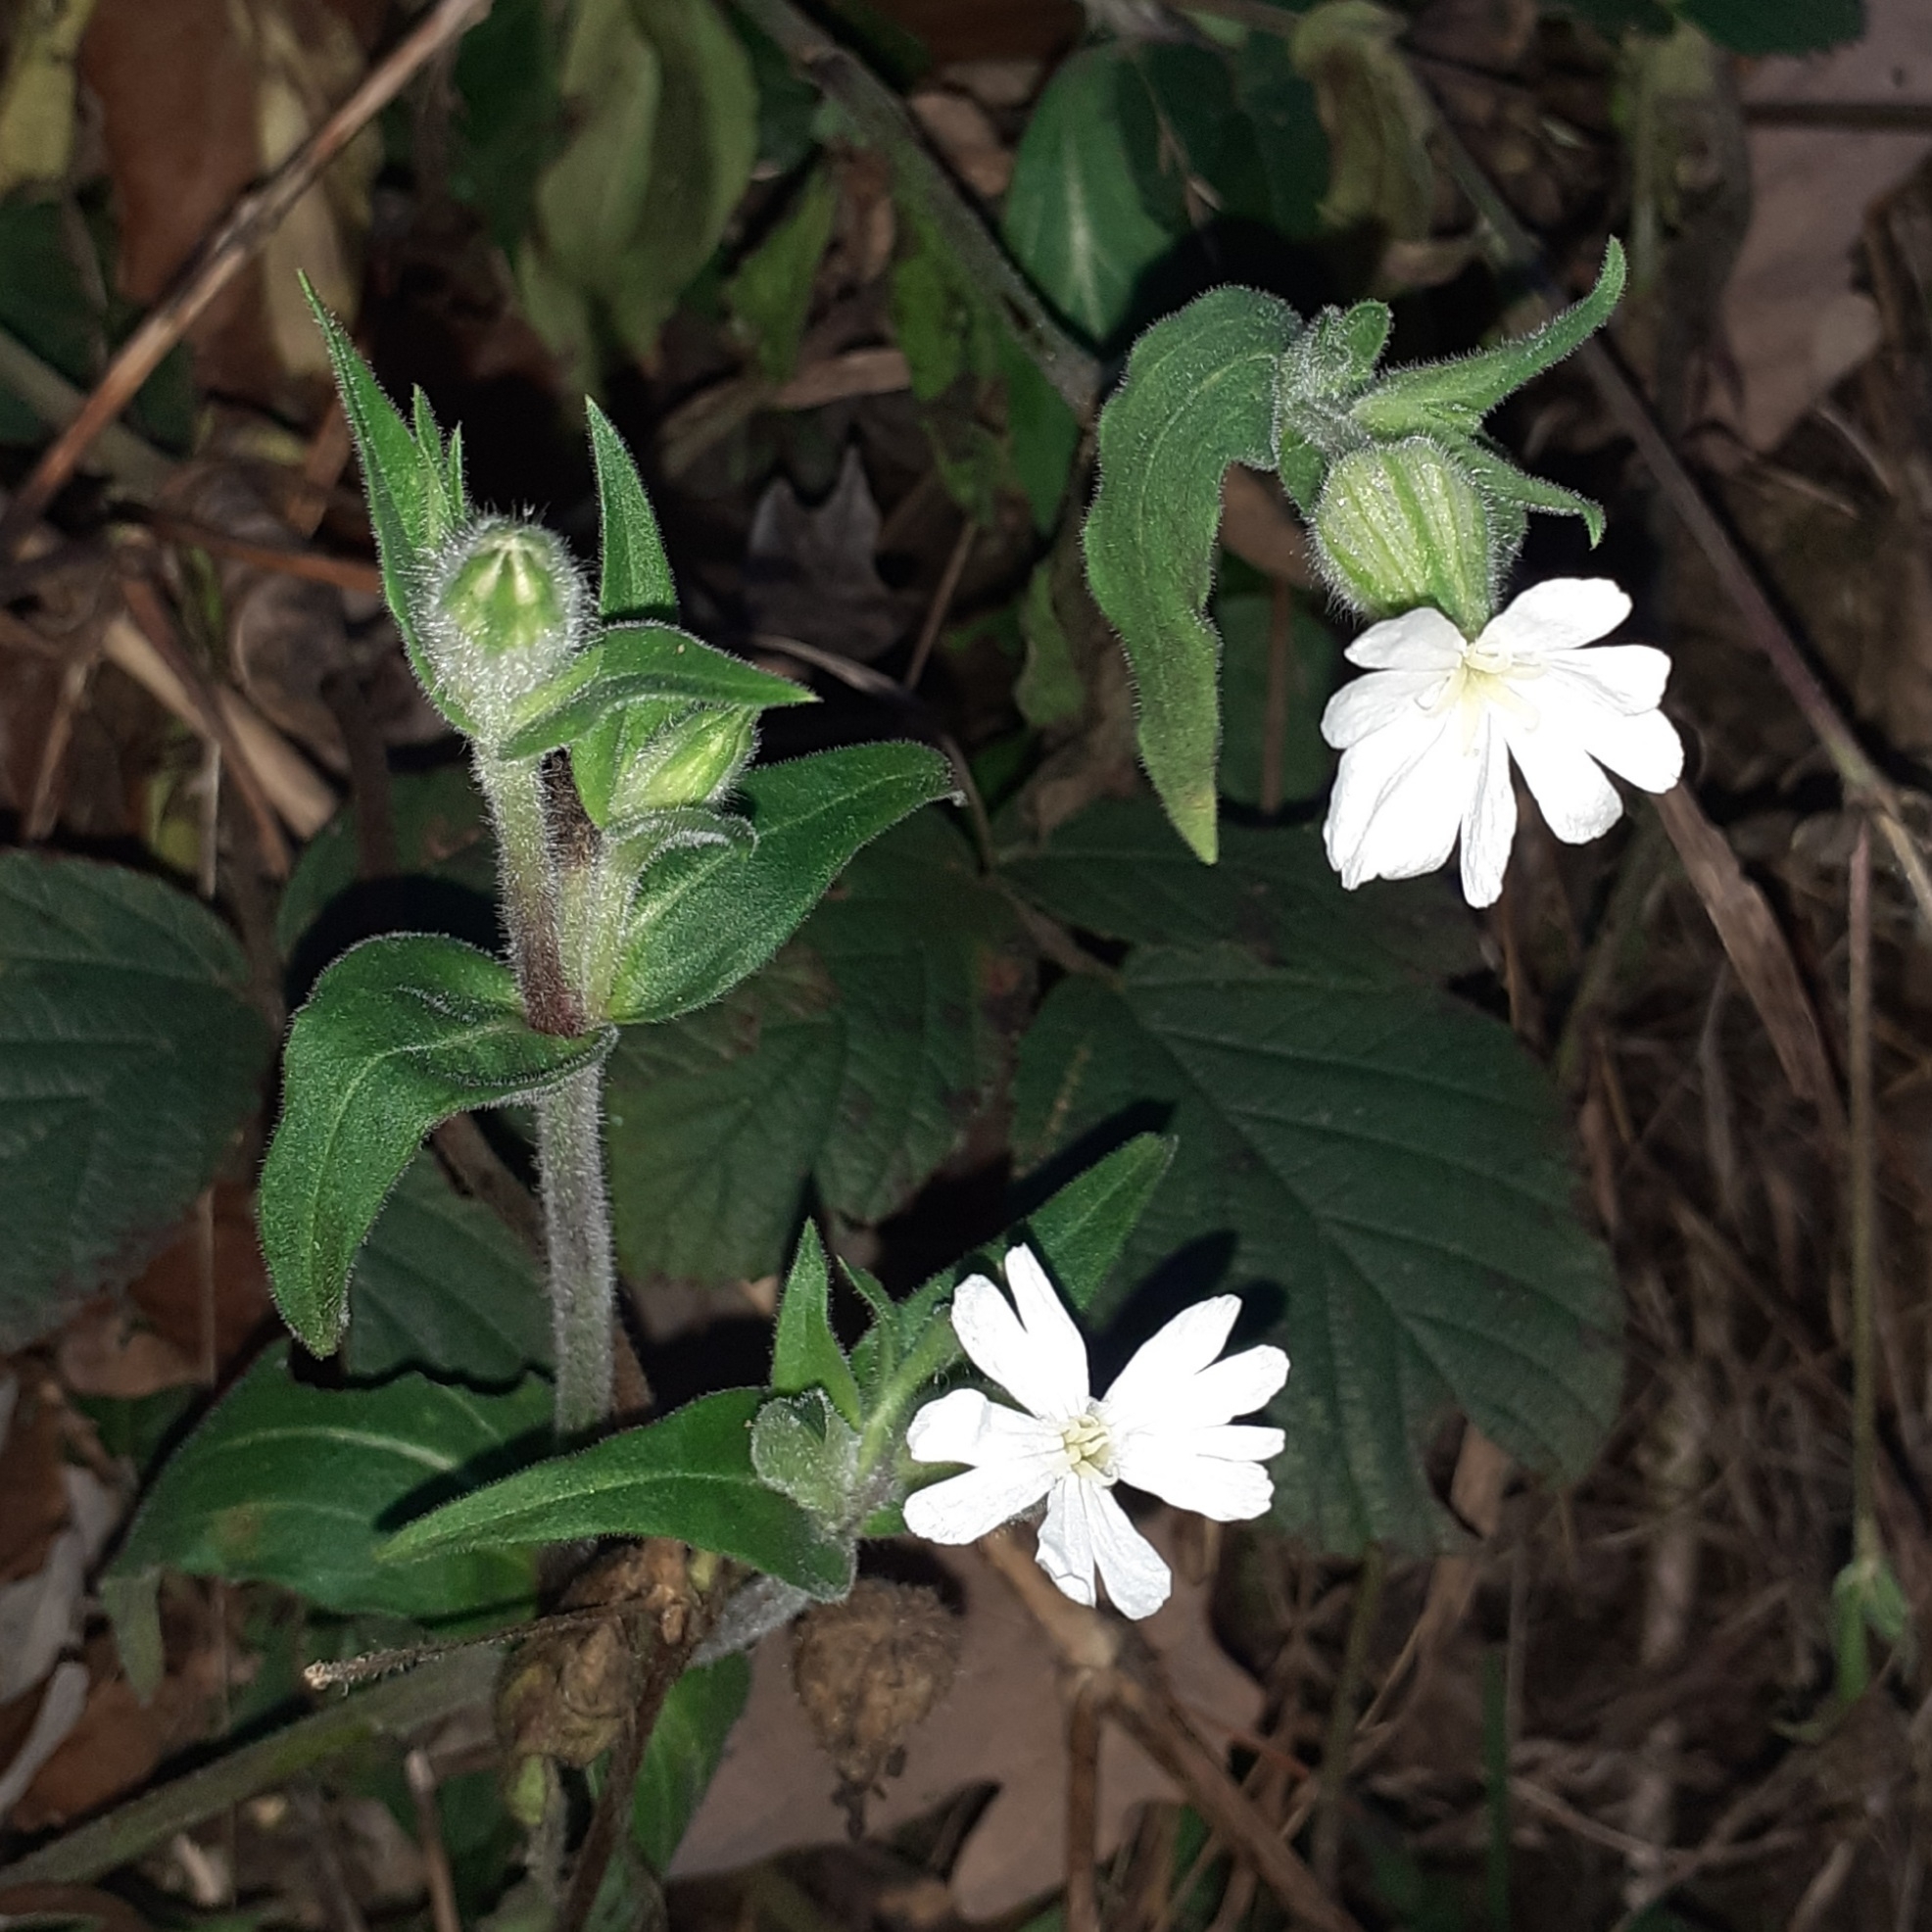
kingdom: Plantae
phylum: Tracheophyta
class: Magnoliopsida
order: Caryophyllales
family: Caryophyllaceae
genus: Silene
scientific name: Silene latifolia
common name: White campion
